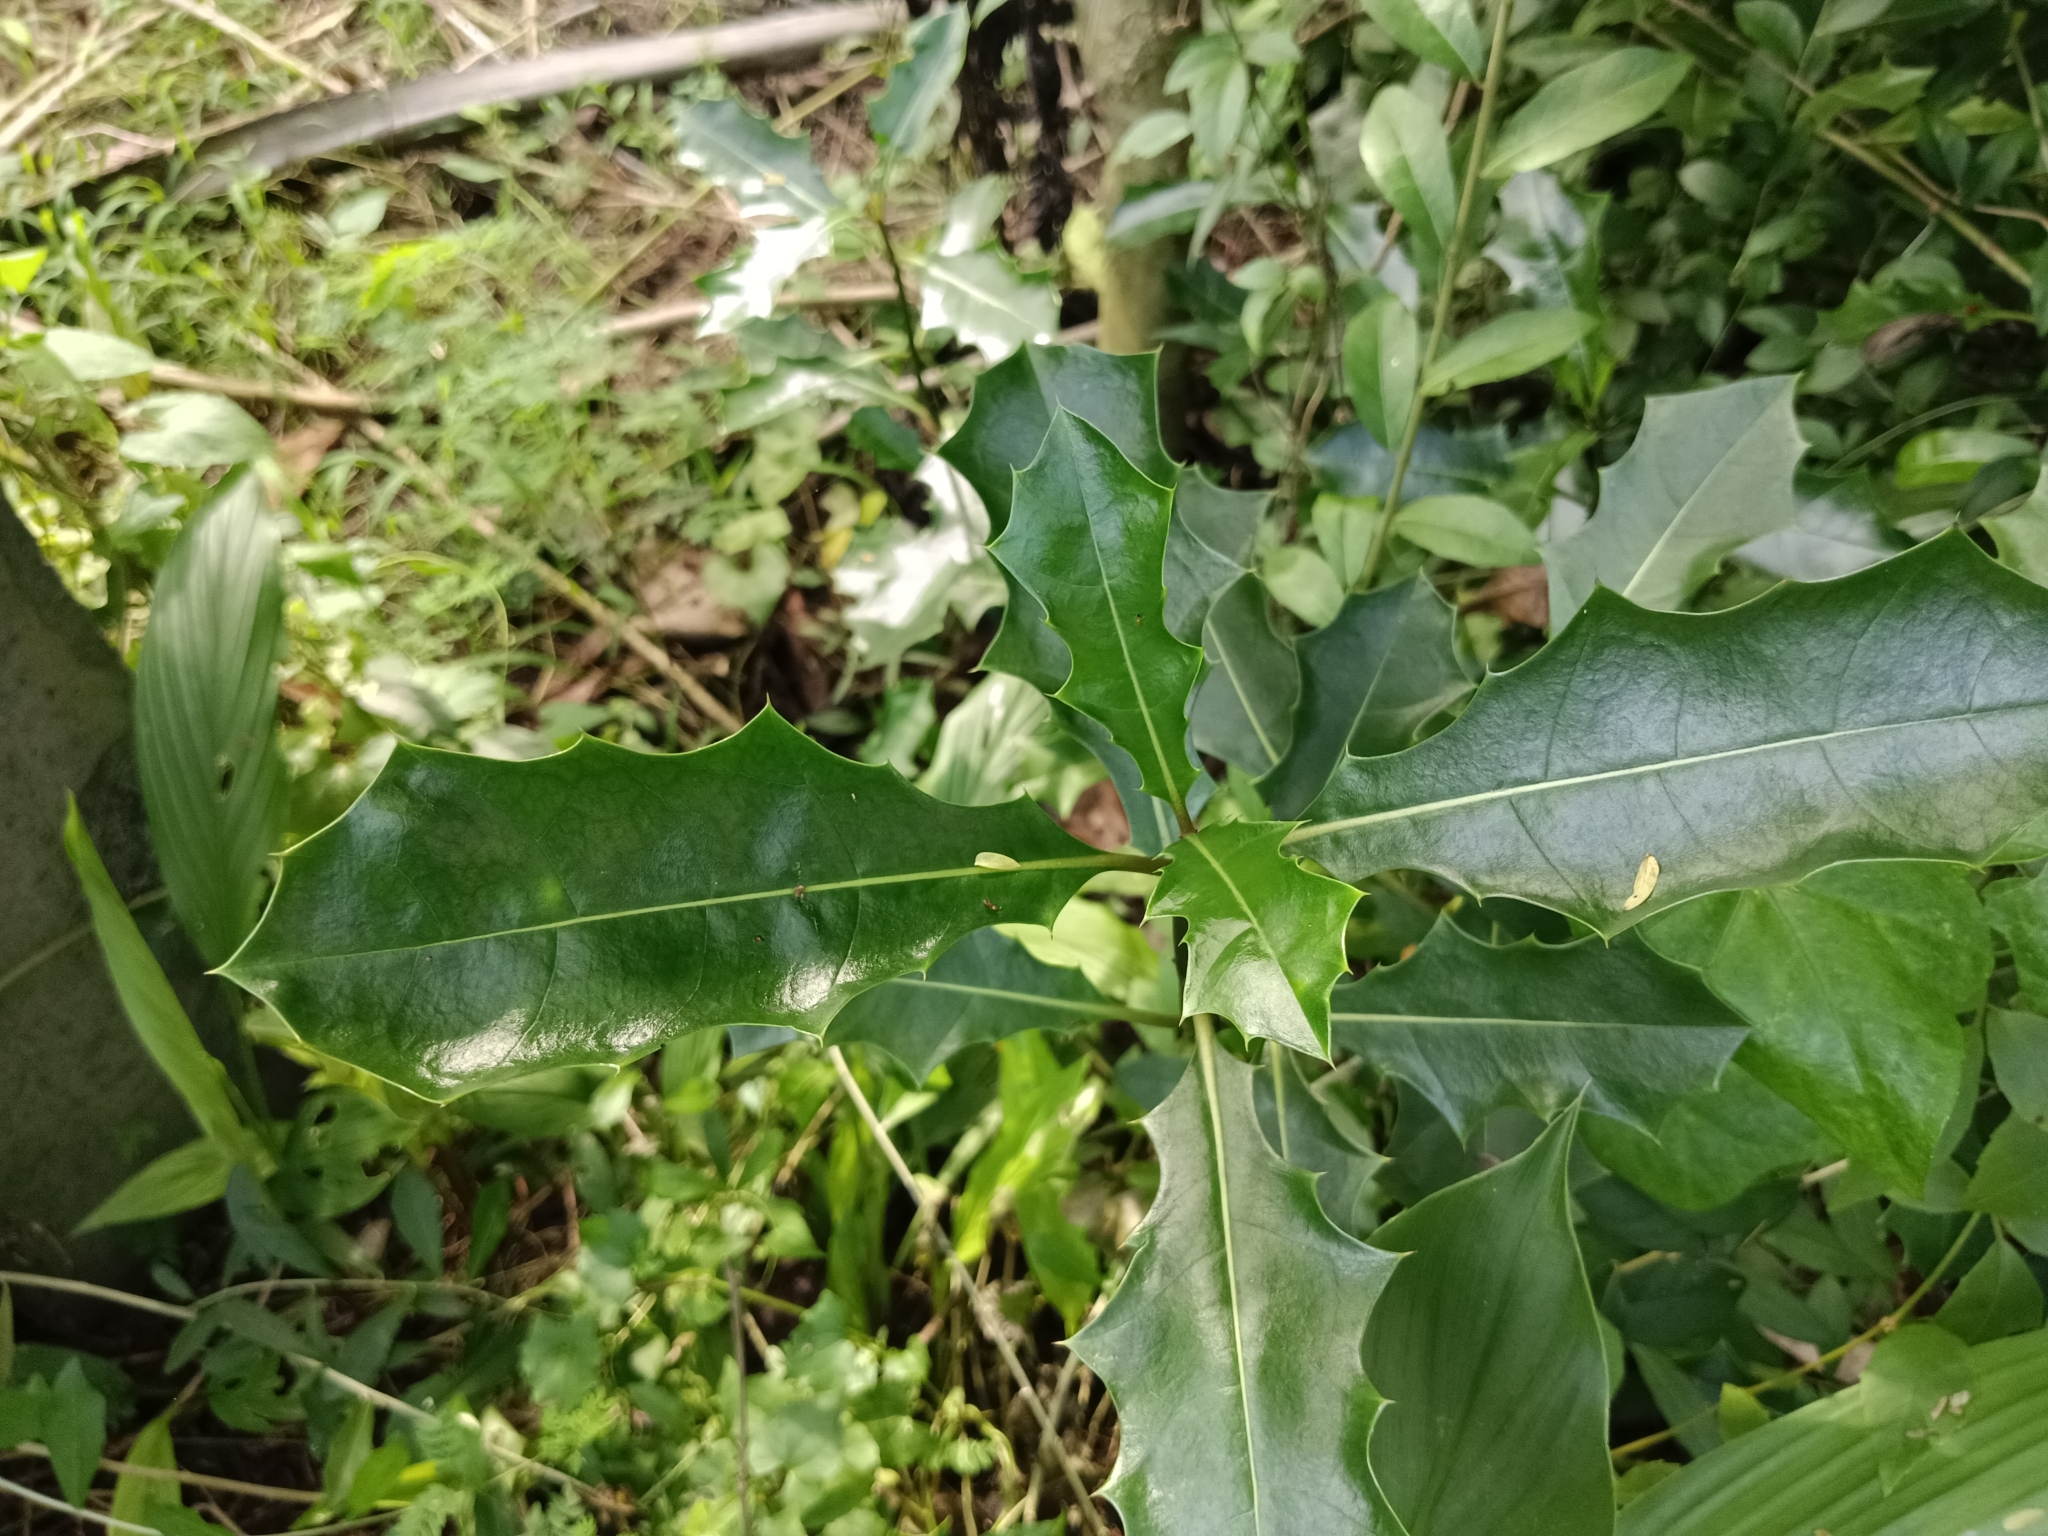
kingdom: Plantae
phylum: Tracheophyta
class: Magnoliopsida
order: Lamiales
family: Acanthaceae
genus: Acanthus
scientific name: Acanthus ilicifolius
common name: Holy mangrove
